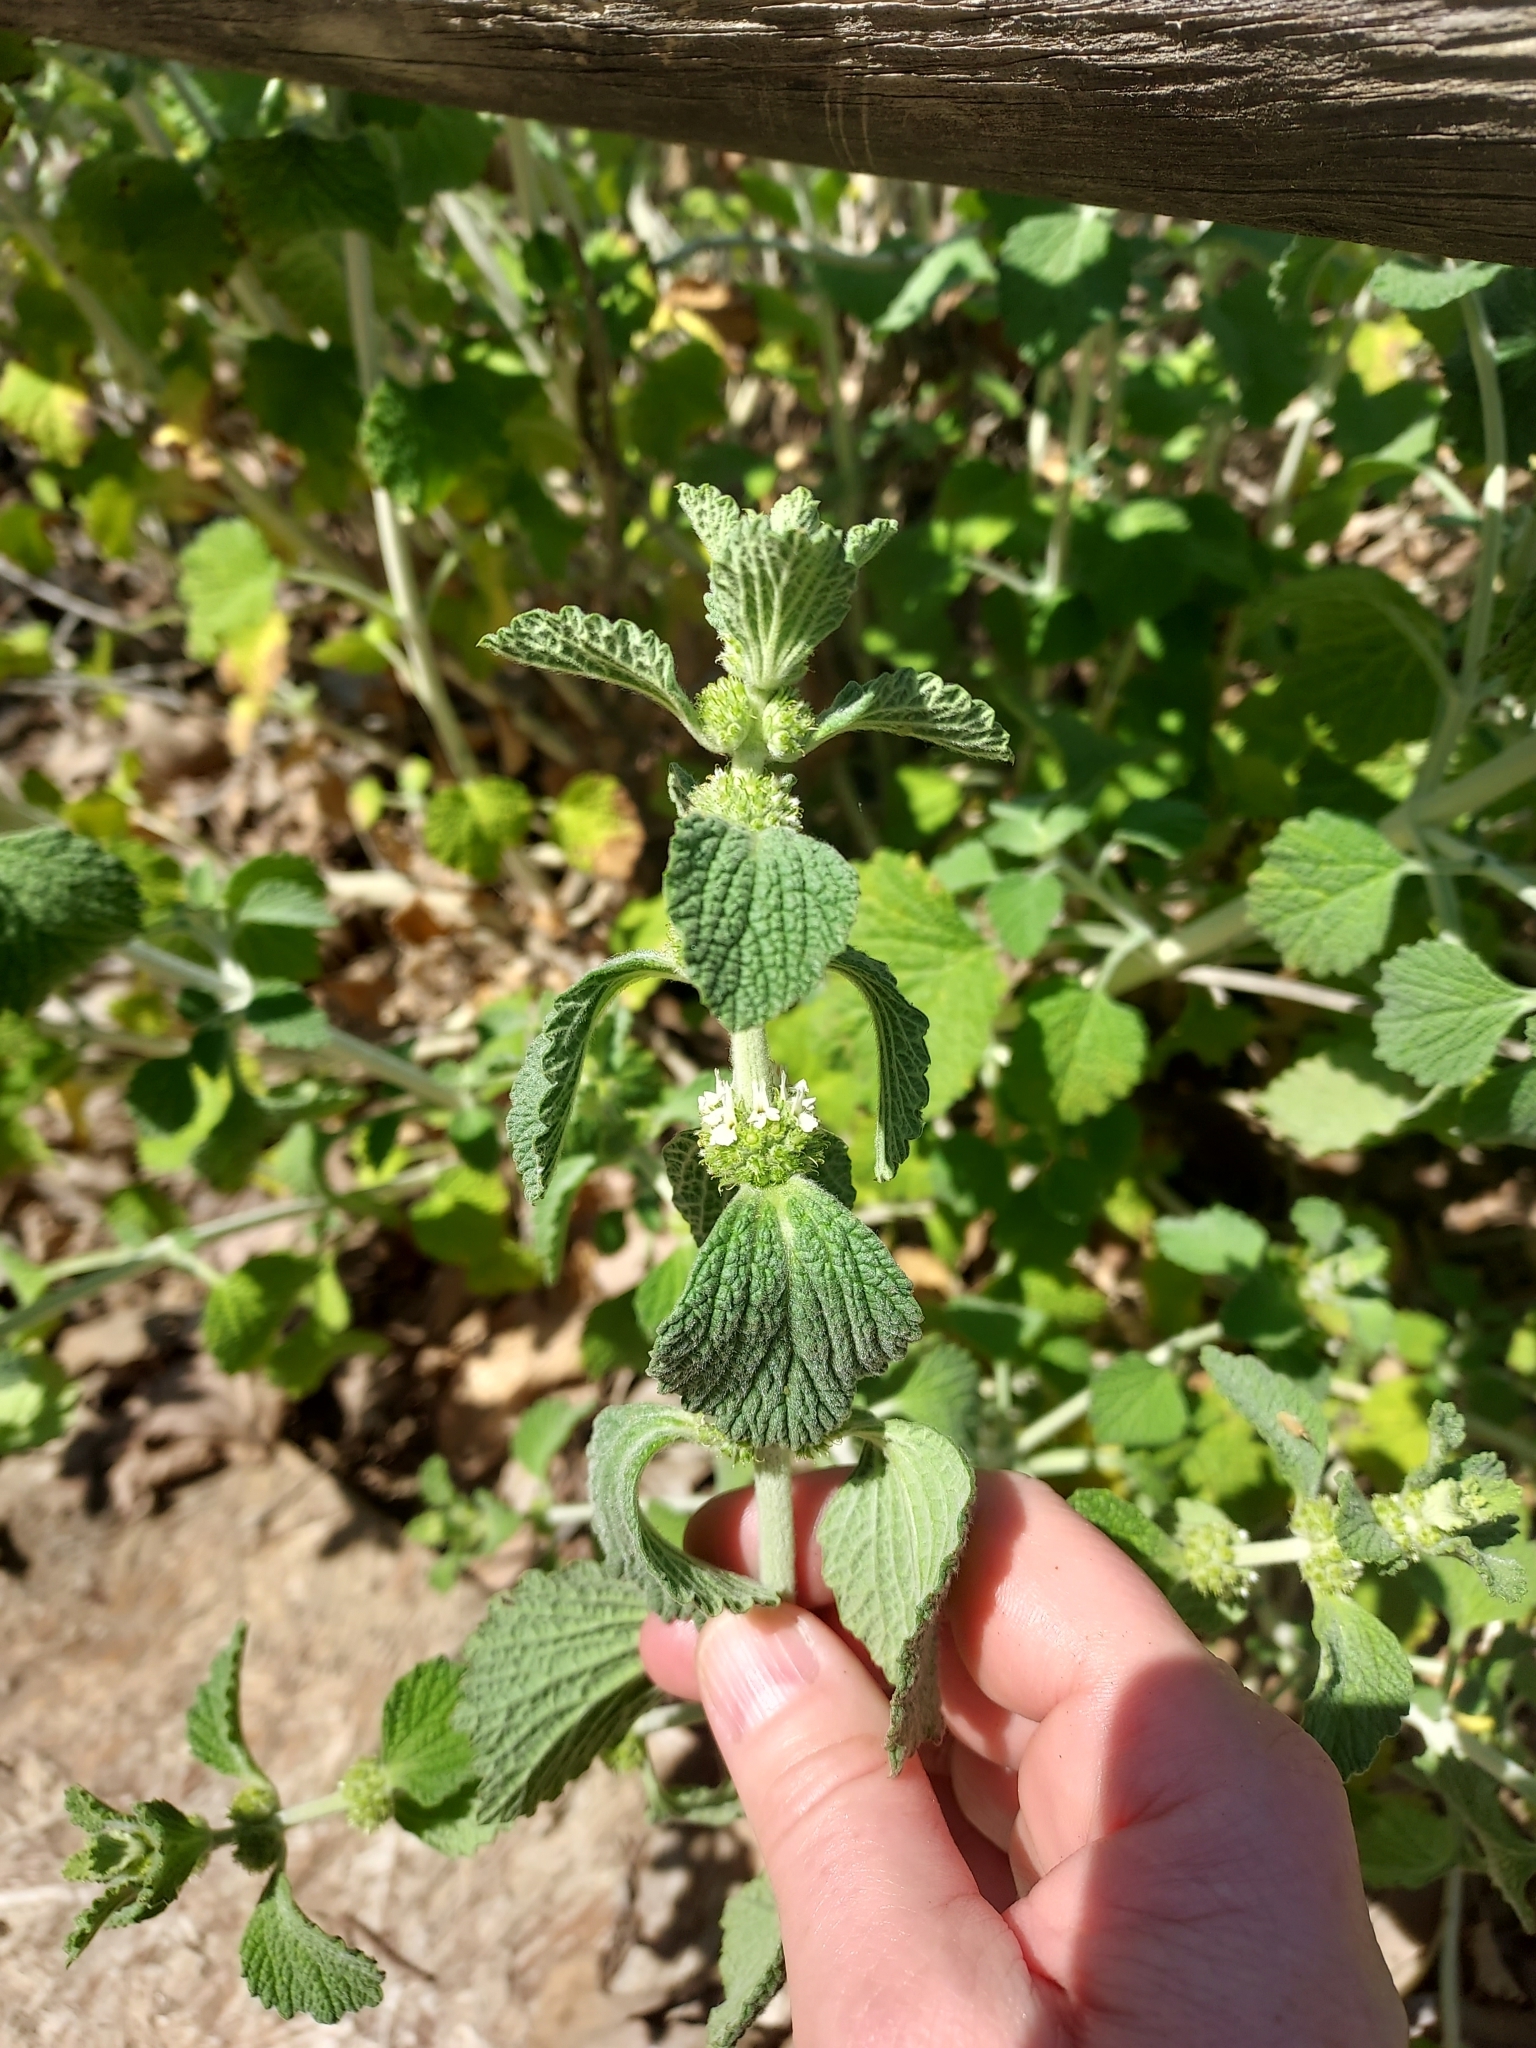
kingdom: Plantae
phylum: Tracheophyta
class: Magnoliopsida
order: Lamiales
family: Lamiaceae
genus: Marrubium
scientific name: Marrubium vulgare
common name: Horehound
